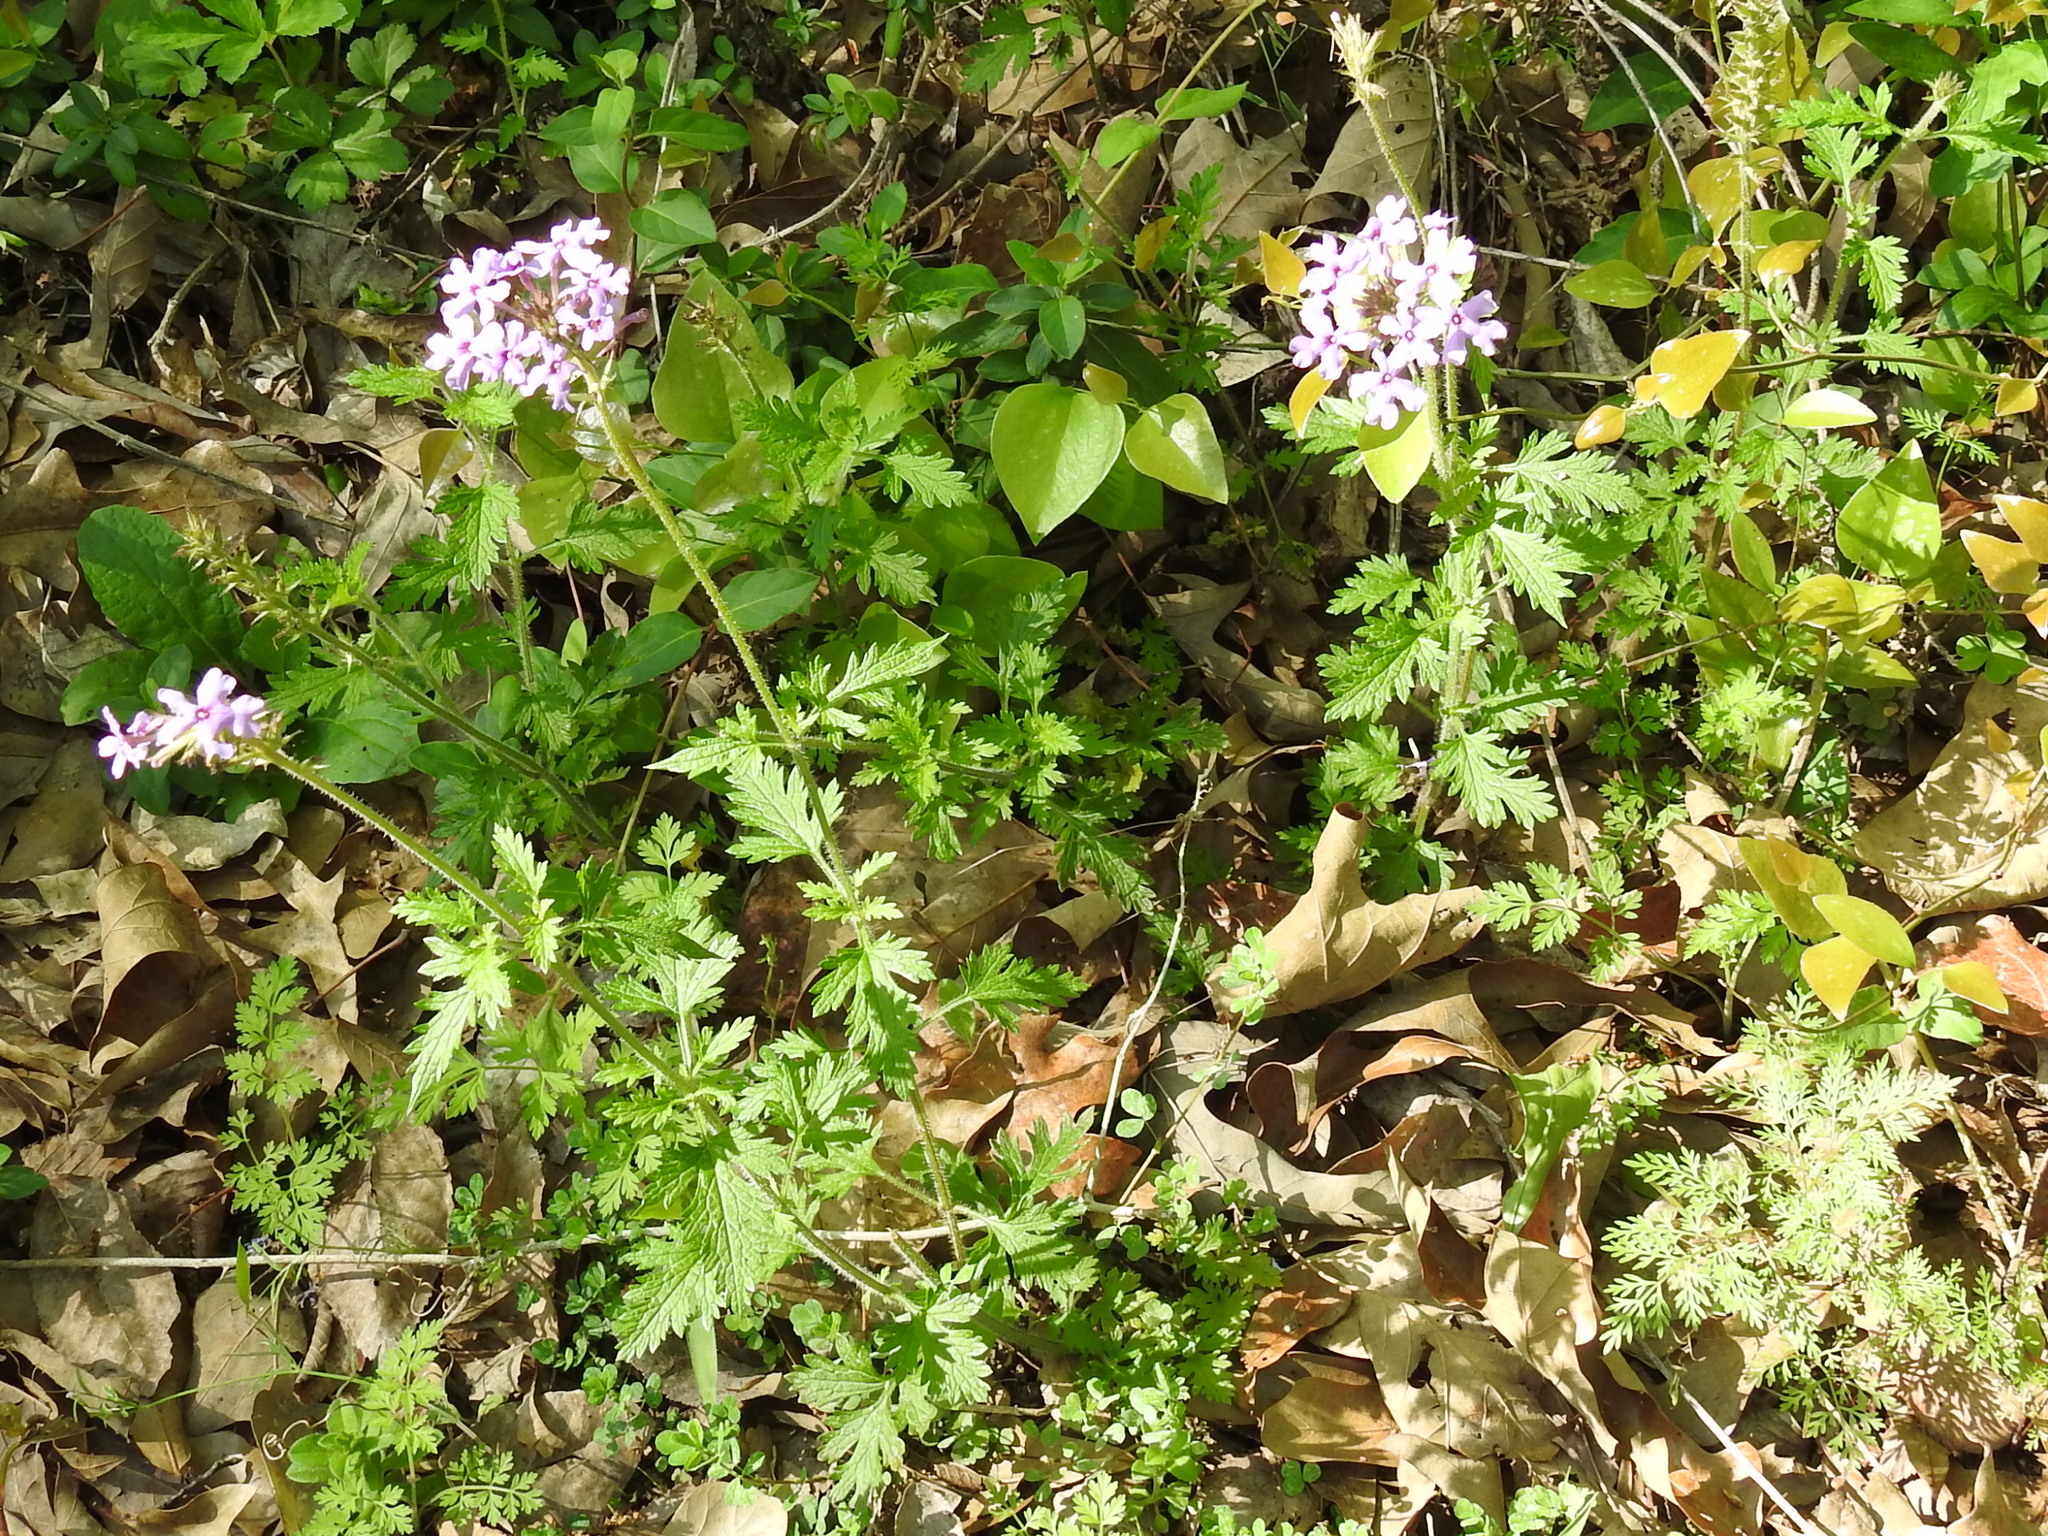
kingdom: Plantae
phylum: Tracheophyta
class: Magnoliopsida
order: Lamiales
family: Verbenaceae
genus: Verbena
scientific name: Verbena canadensis
